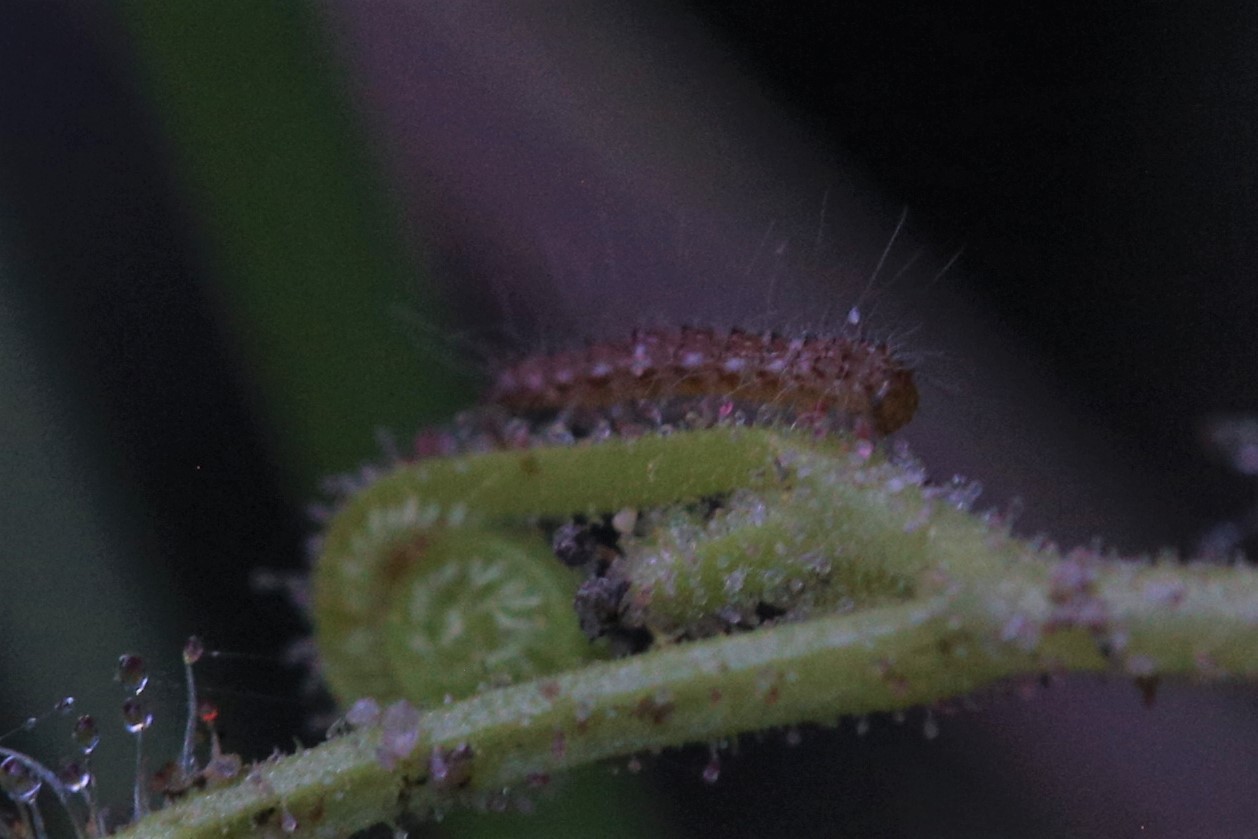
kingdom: Animalia
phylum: Arthropoda
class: Insecta
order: Lepidoptera
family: Pterophoridae
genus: Buckleria
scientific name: Buckleria paludum
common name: Marsh plume
